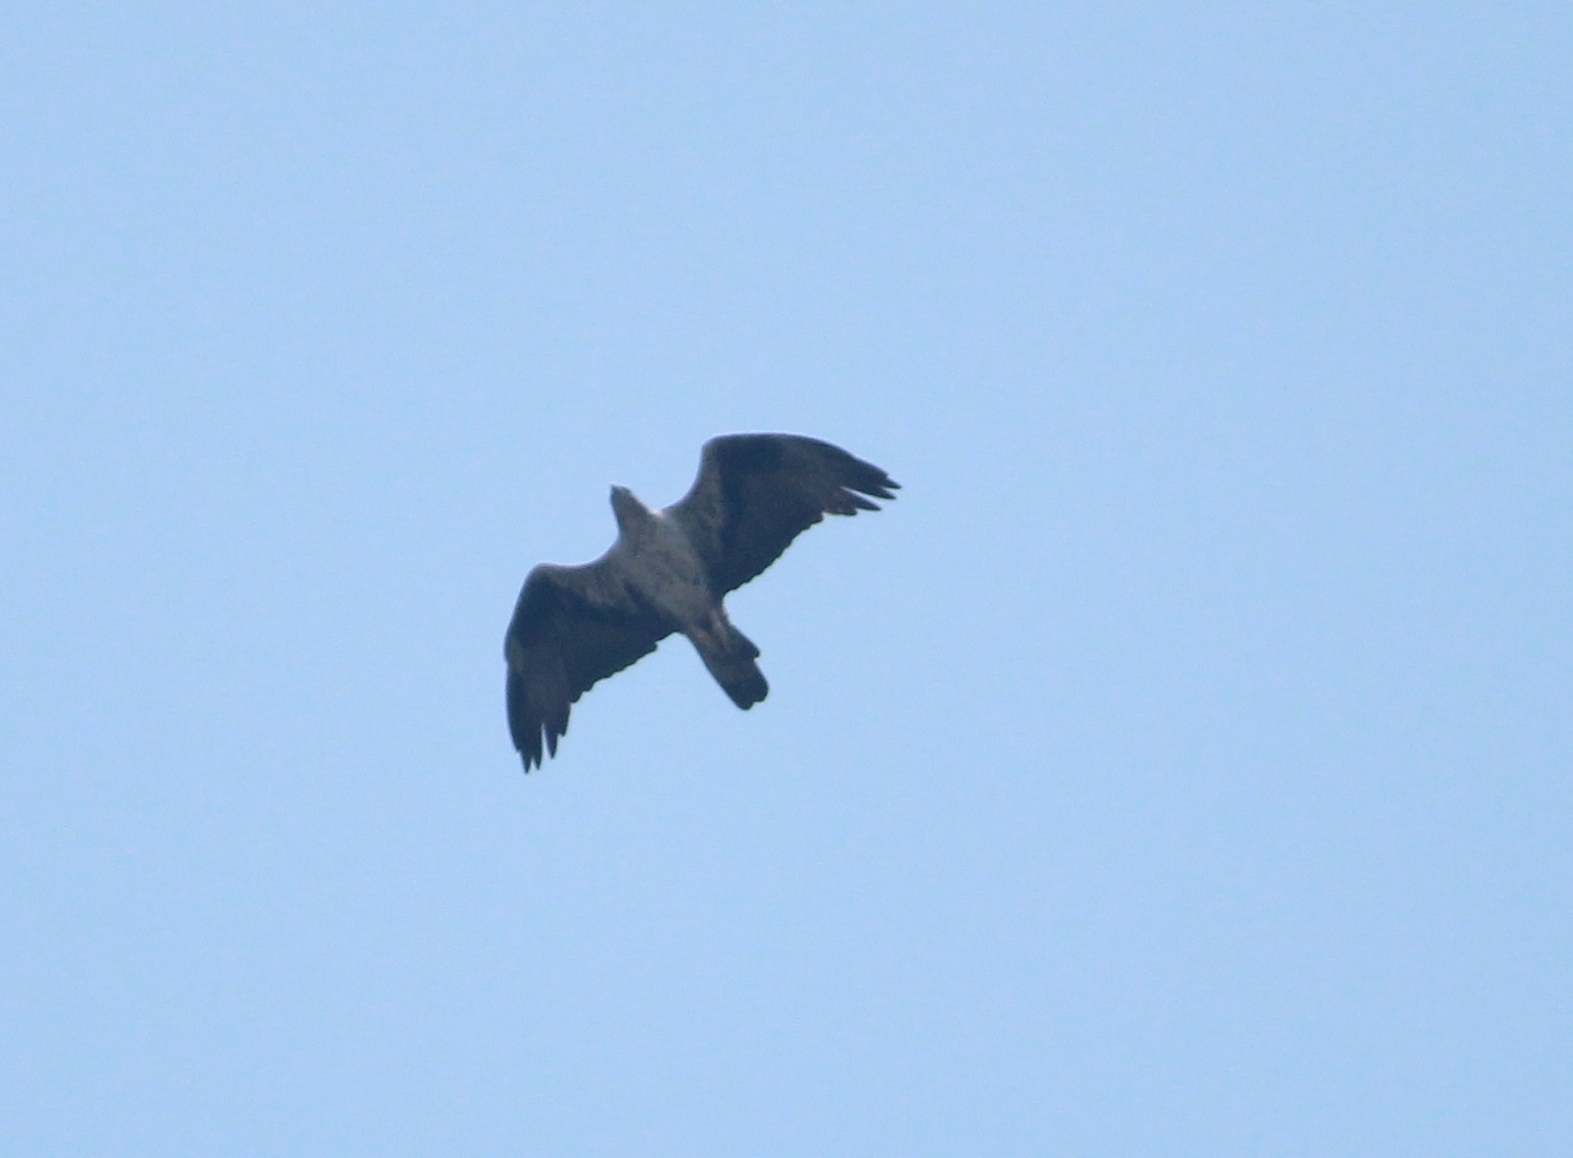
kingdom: Animalia
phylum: Chordata
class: Aves
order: Accipitriformes
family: Accipitridae
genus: Aquila
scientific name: Aquila fasciata
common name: Bonelli's eagle
